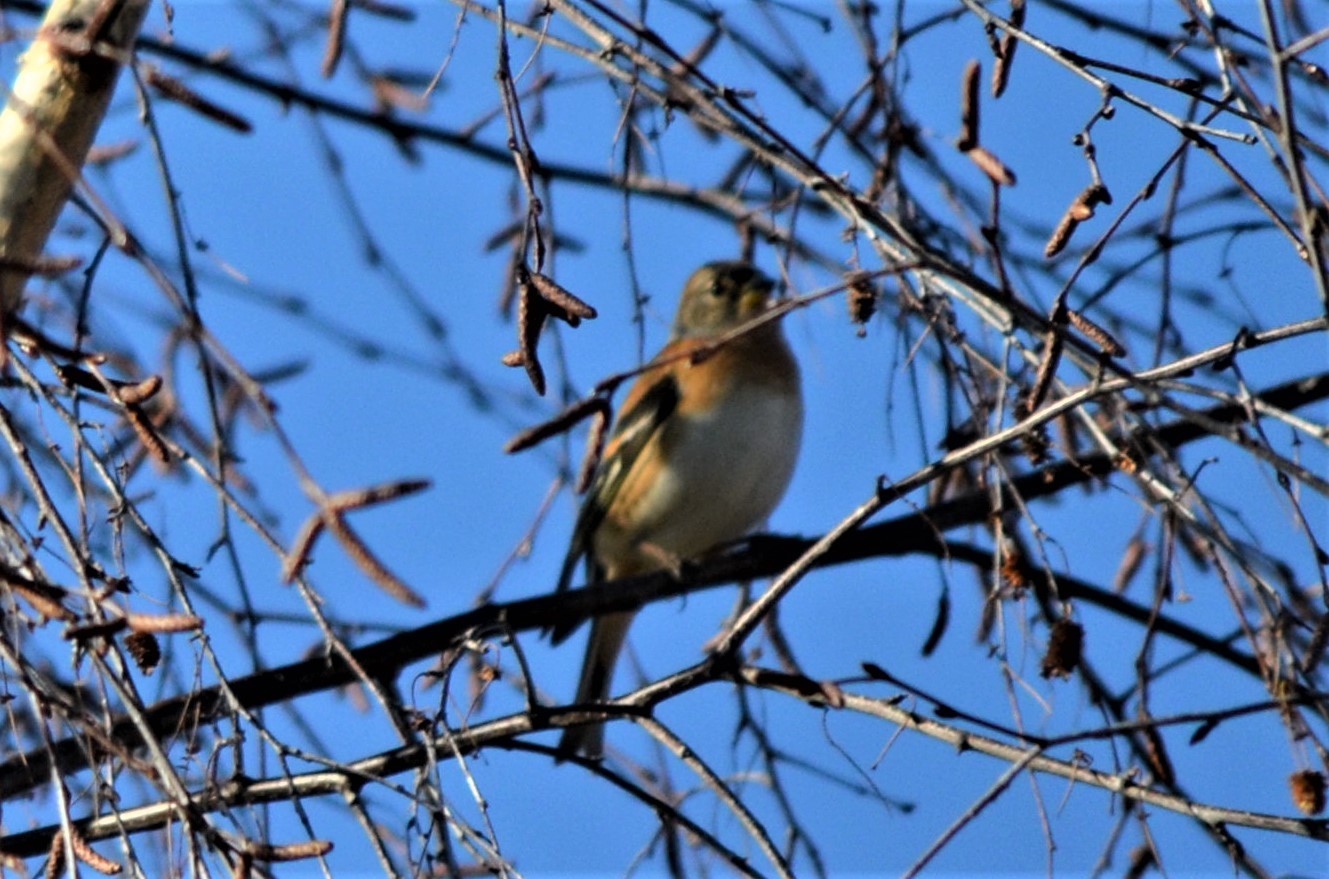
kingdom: Animalia
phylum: Chordata
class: Aves
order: Passeriformes
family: Fringillidae
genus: Fringilla
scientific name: Fringilla montifringilla
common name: Brambling
